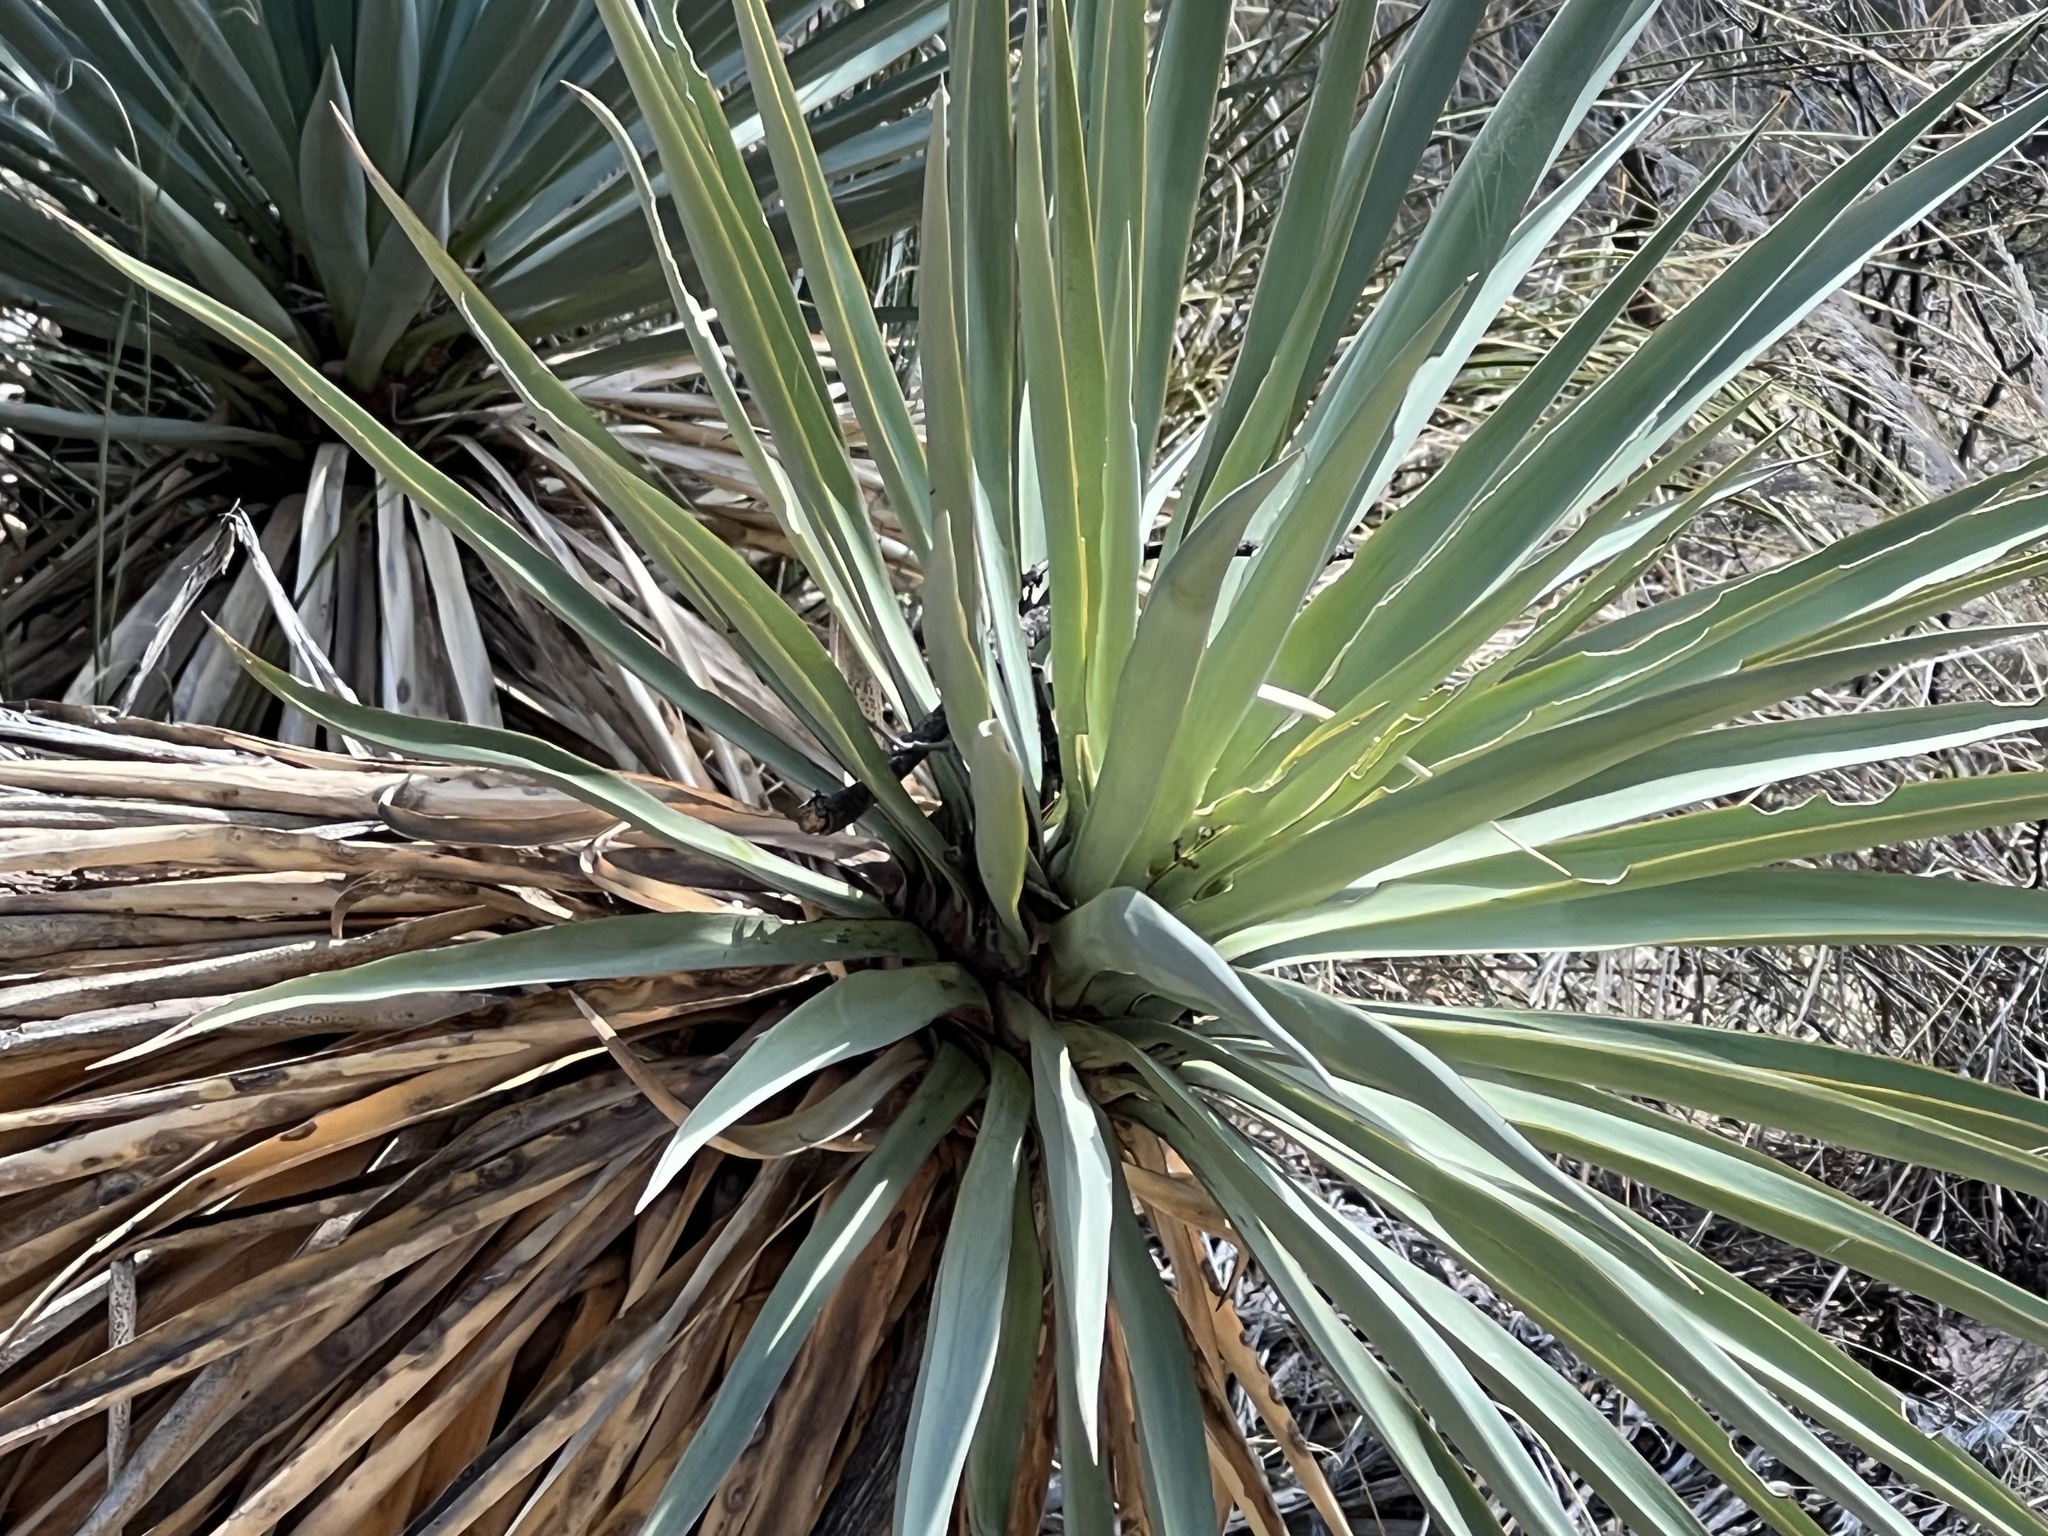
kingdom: Plantae
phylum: Tracheophyta
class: Liliopsida
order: Asparagales
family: Asparagaceae
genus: Yucca
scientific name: Yucca schottii
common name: Hoary yucca
